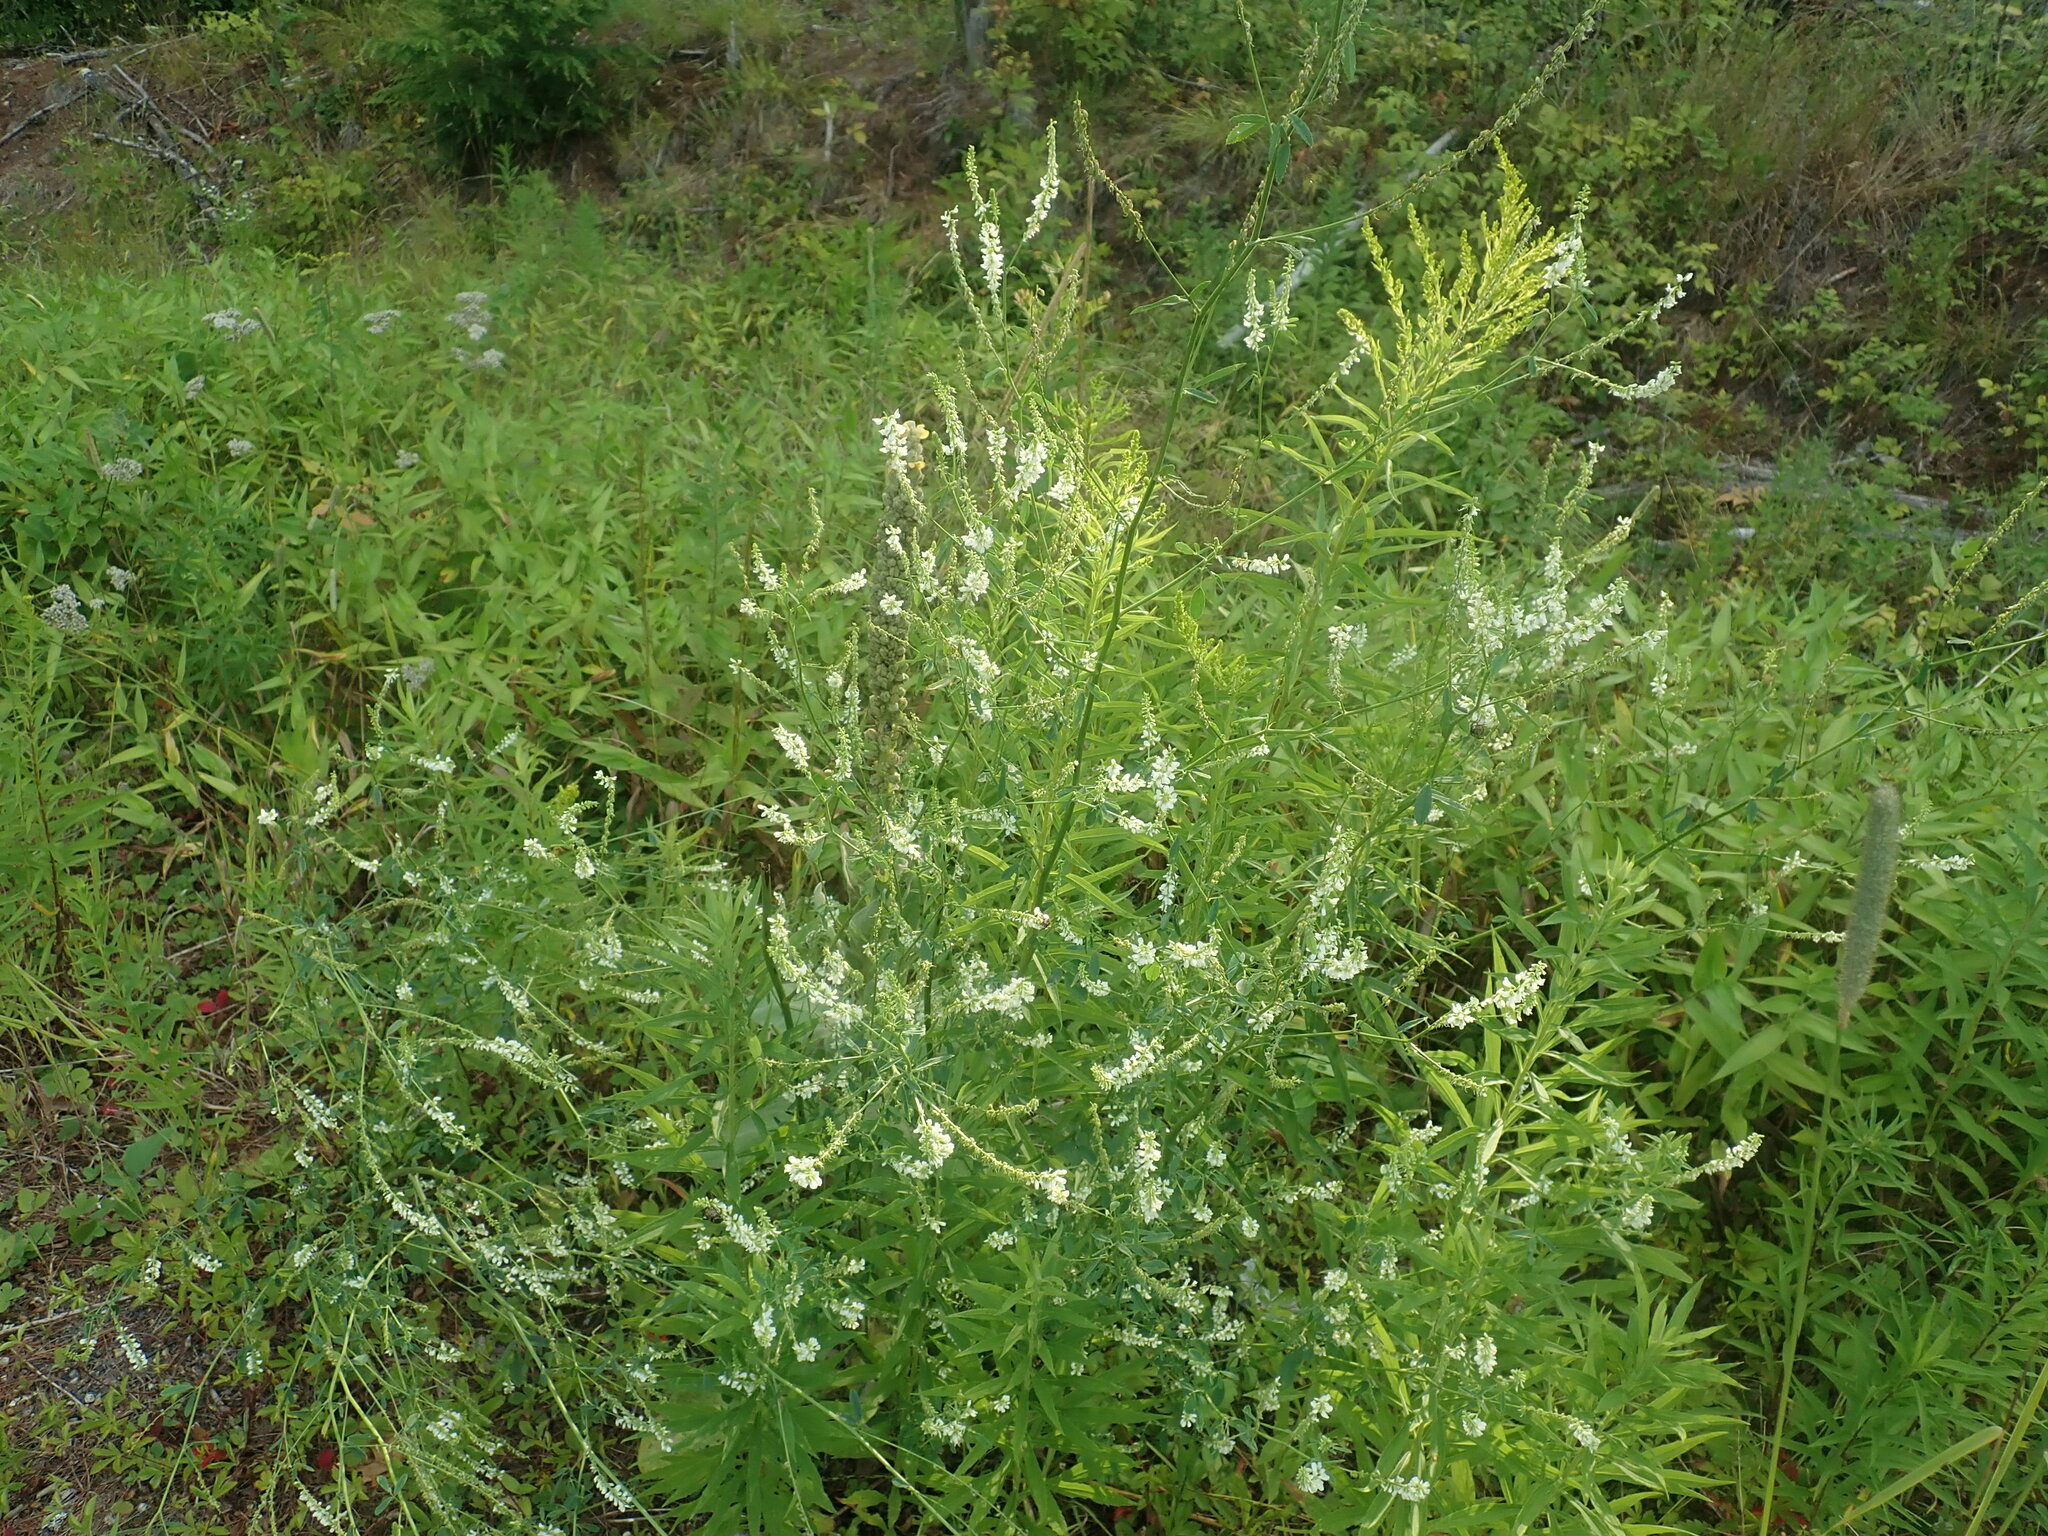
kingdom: Plantae
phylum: Tracheophyta
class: Magnoliopsida
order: Fabales
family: Fabaceae
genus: Melilotus
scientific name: Melilotus albus
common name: White melilot
